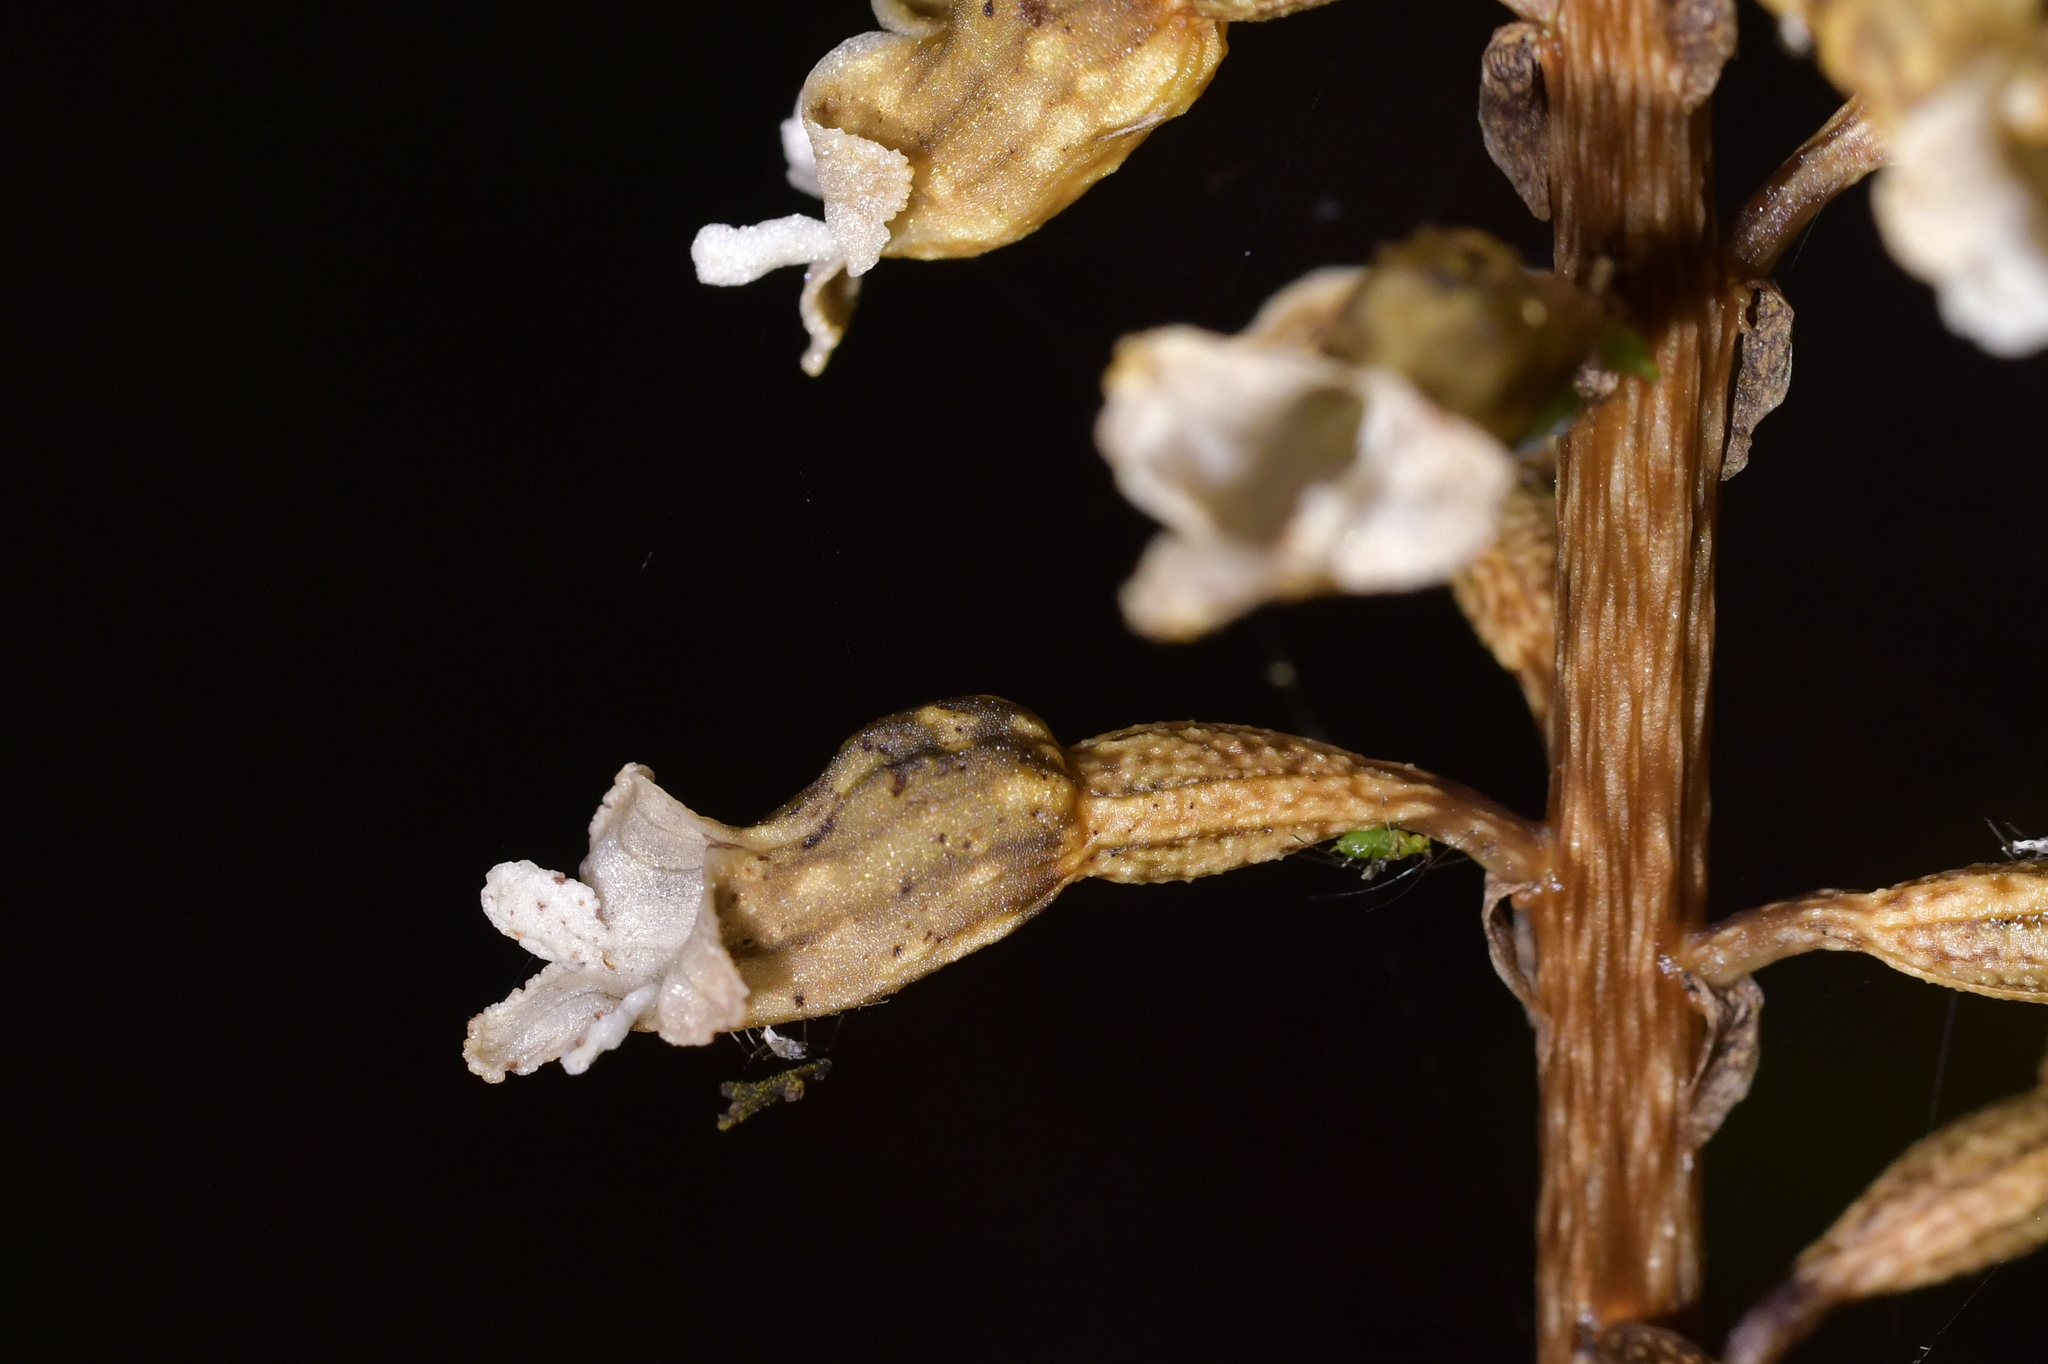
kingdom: Plantae
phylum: Tracheophyta
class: Liliopsida
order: Asparagales
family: Orchidaceae
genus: Gastrodia
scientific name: Gastrodia cunninghamii
